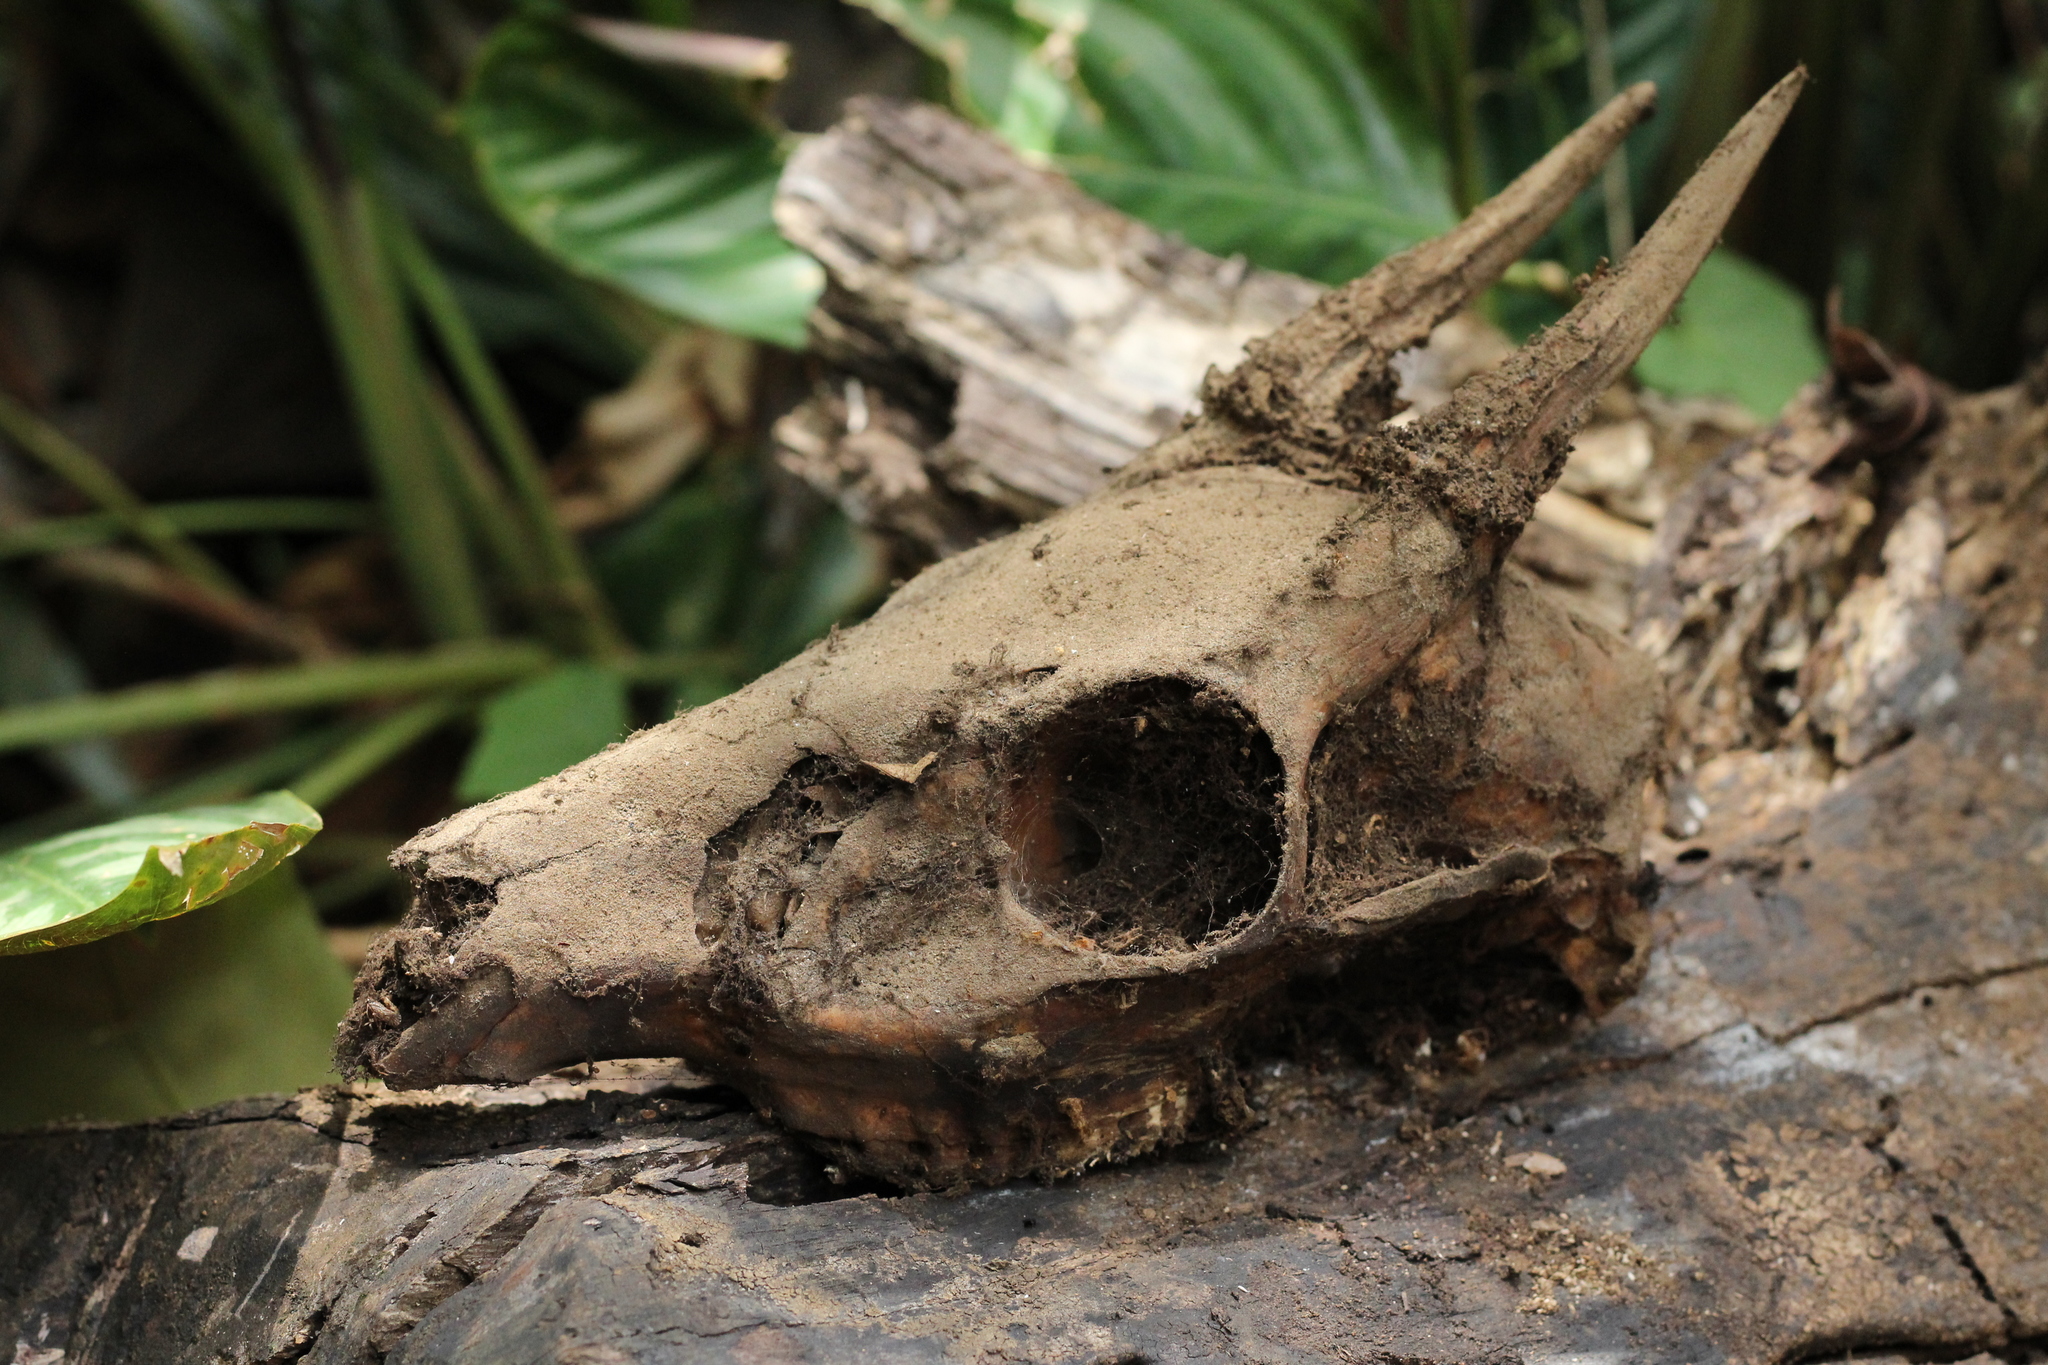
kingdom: Animalia
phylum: Chordata
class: Mammalia
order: Artiodactyla
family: Cervidae
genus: Mazama
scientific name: Mazama temama
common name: Central american red brocket
